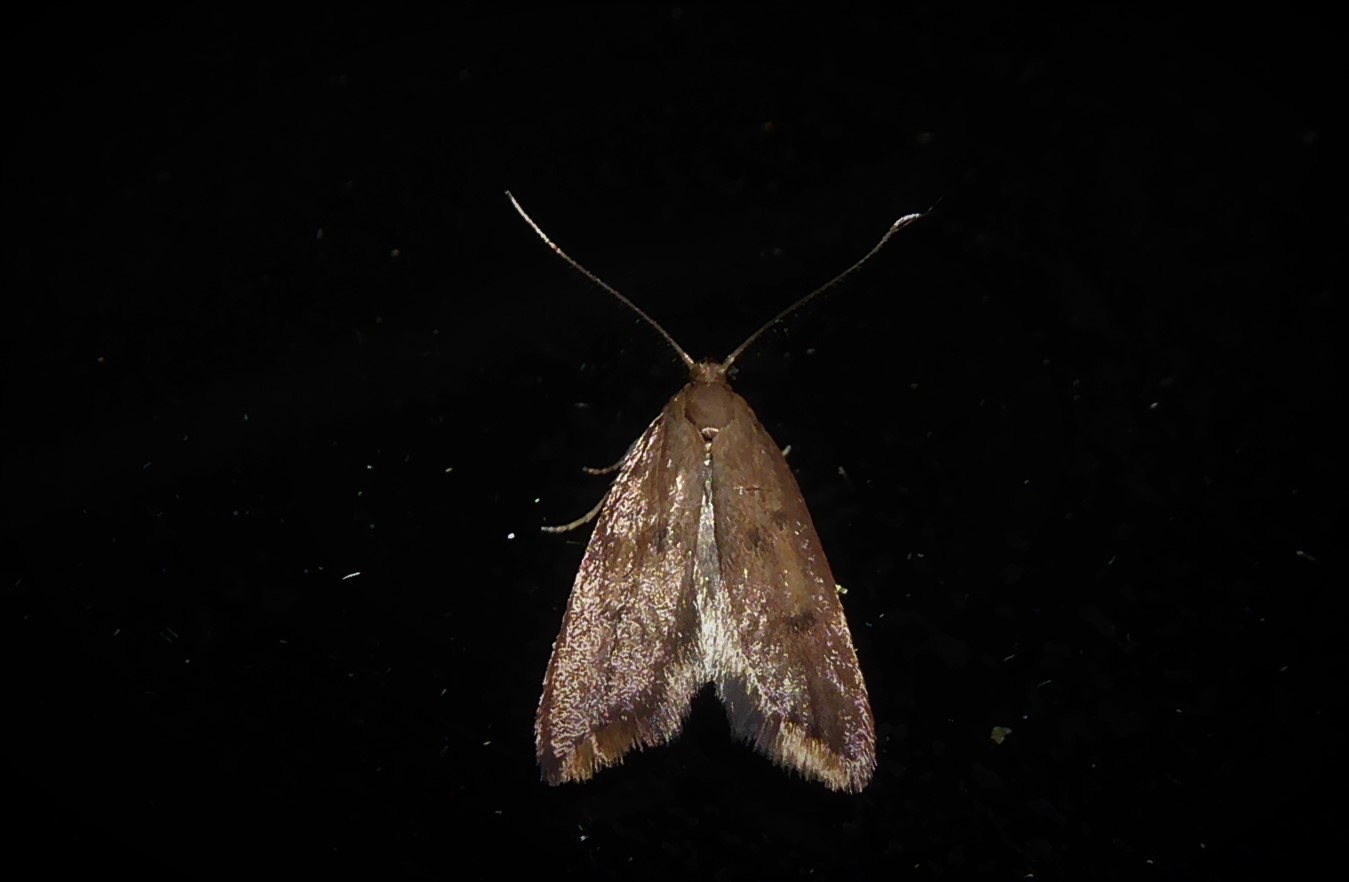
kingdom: Animalia
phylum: Arthropoda
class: Insecta
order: Lepidoptera
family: Oecophoridae
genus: Tachystola
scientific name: Tachystola acroxantha
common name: Ruddy streak
